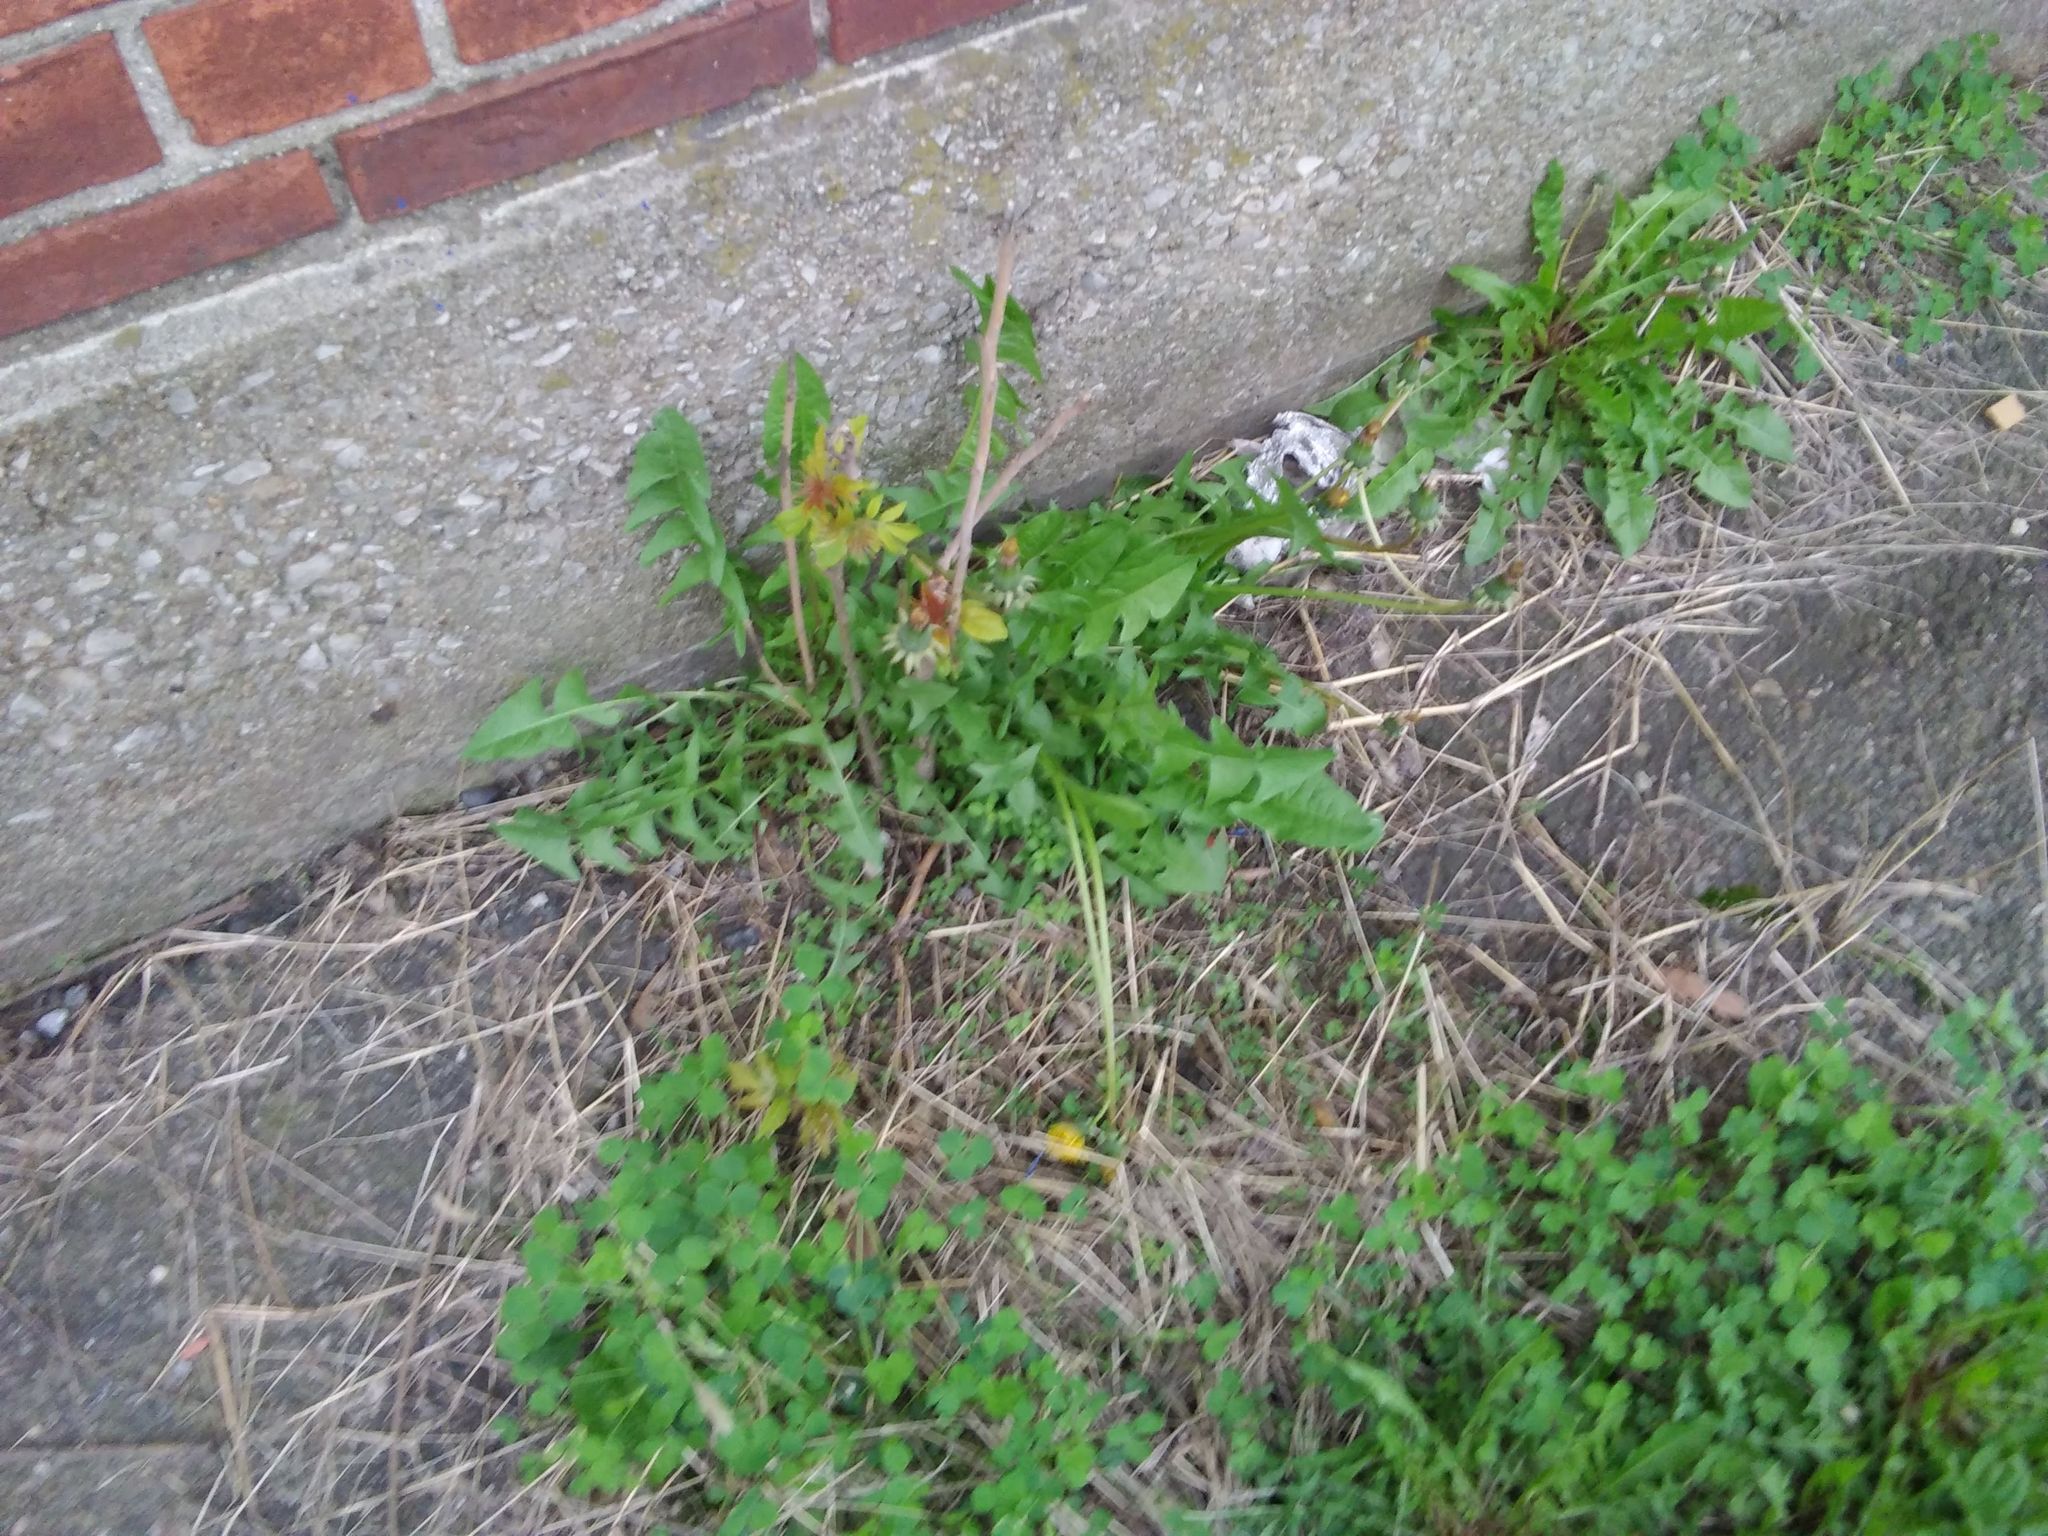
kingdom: Plantae
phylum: Tracheophyta
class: Magnoliopsida
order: Asterales
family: Asteraceae
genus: Taraxacum
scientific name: Taraxacum
